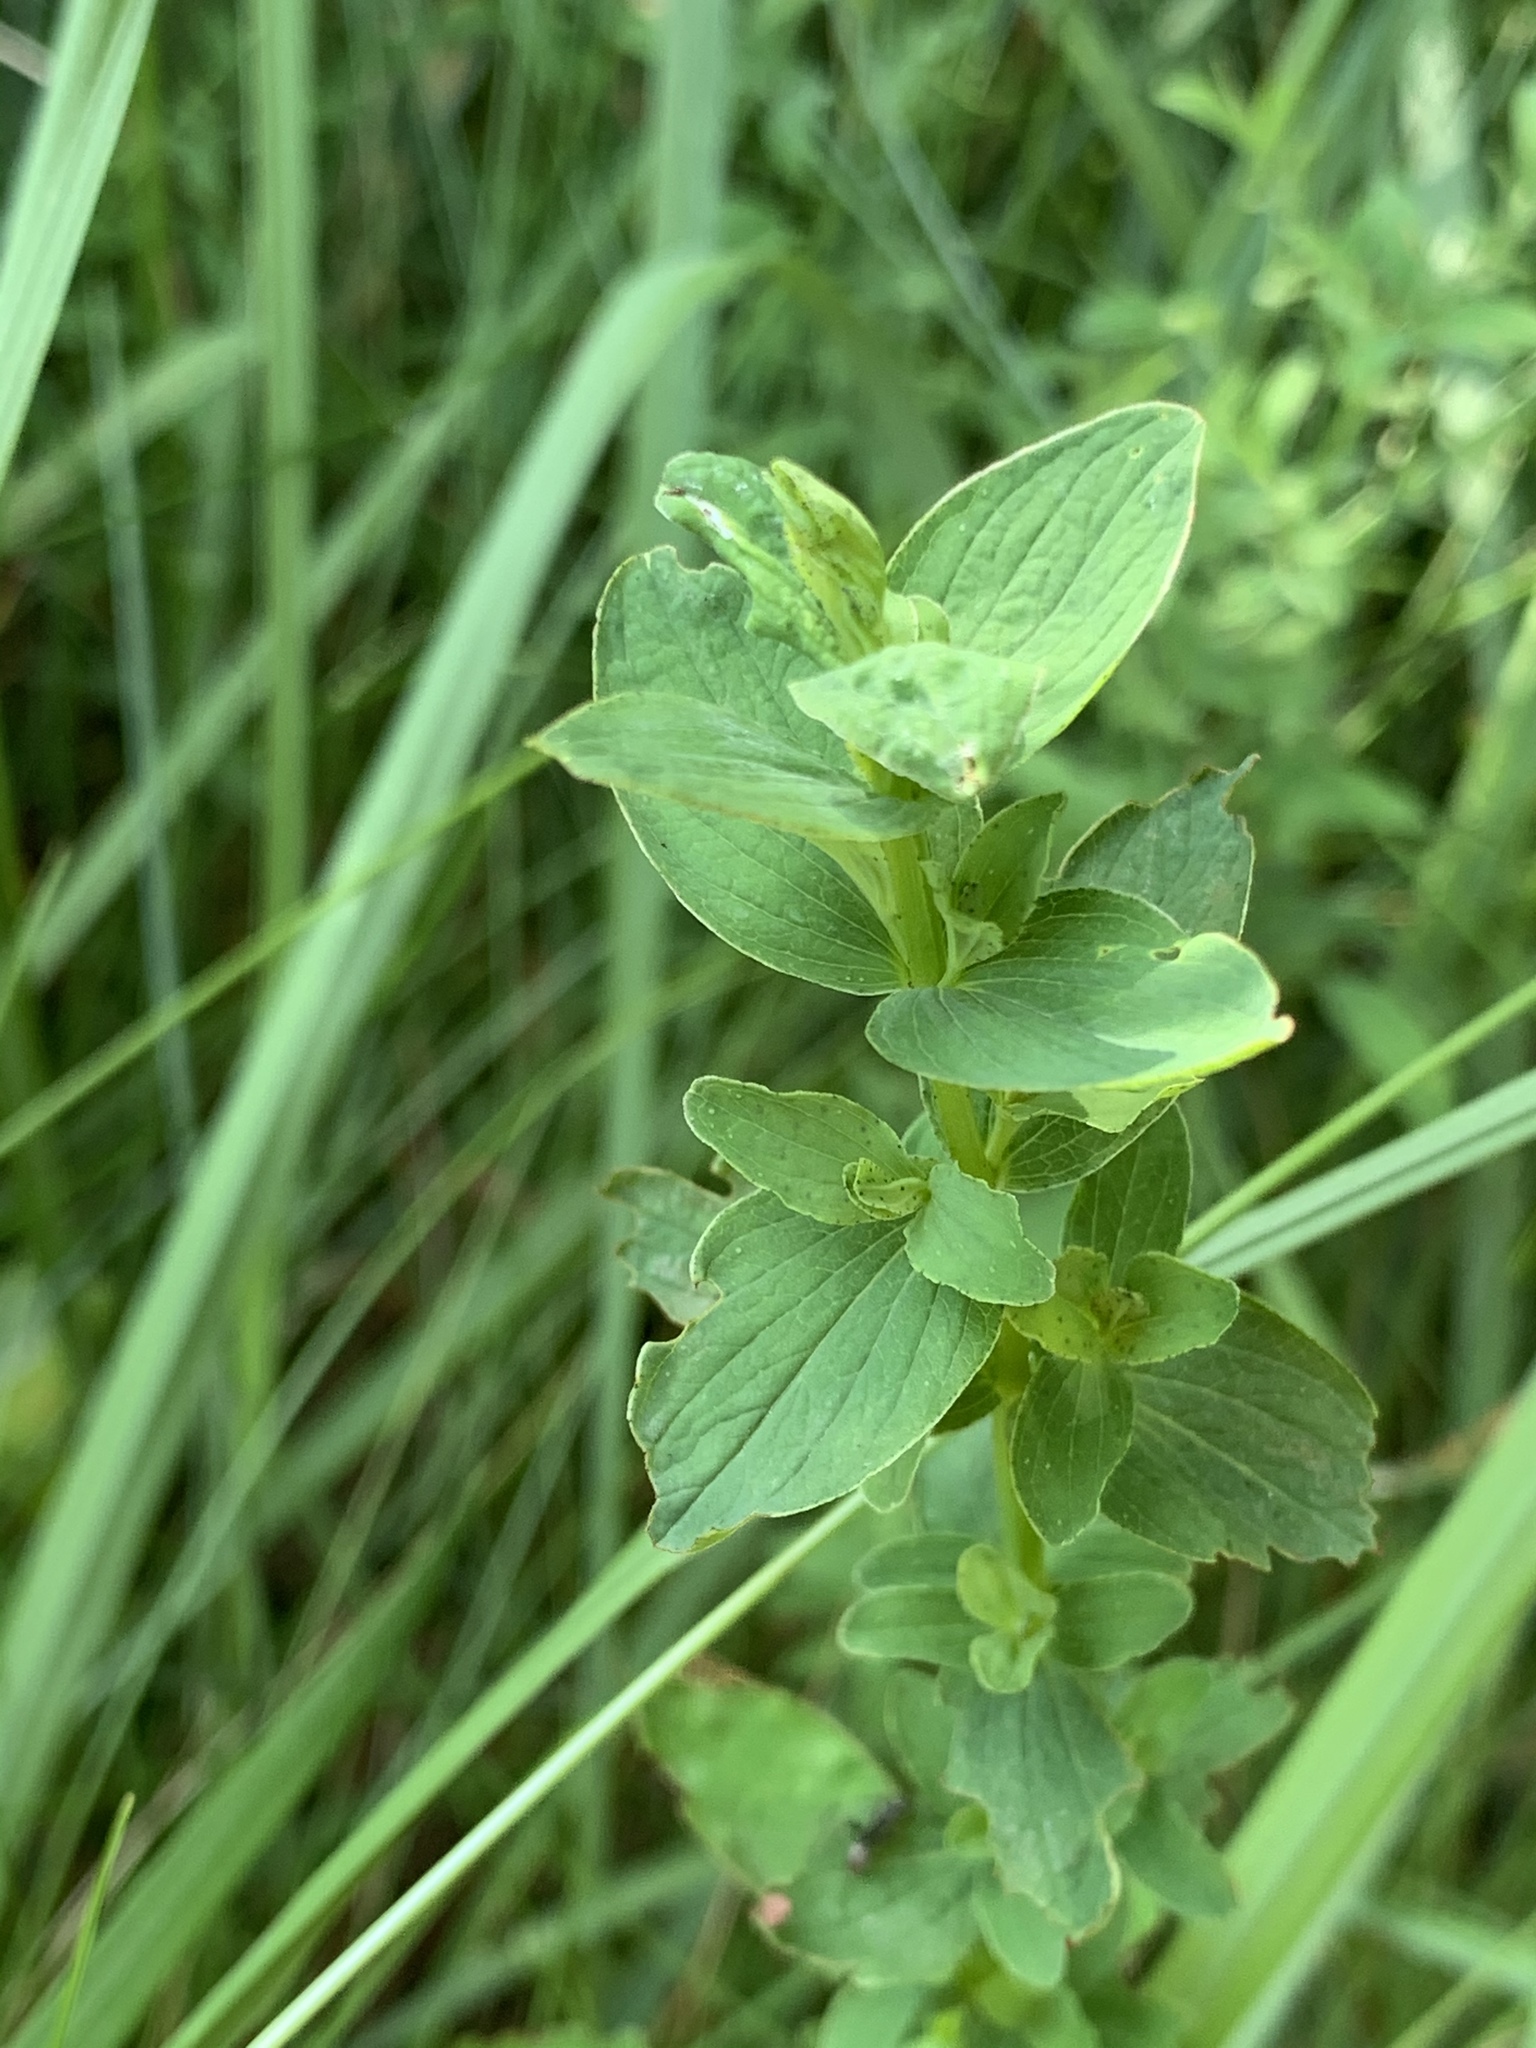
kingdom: Plantae
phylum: Tracheophyta
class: Magnoliopsida
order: Malpighiales
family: Hypericaceae
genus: Hypericum
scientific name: Hypericum maculatum
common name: Imperforate st. john's-wort
